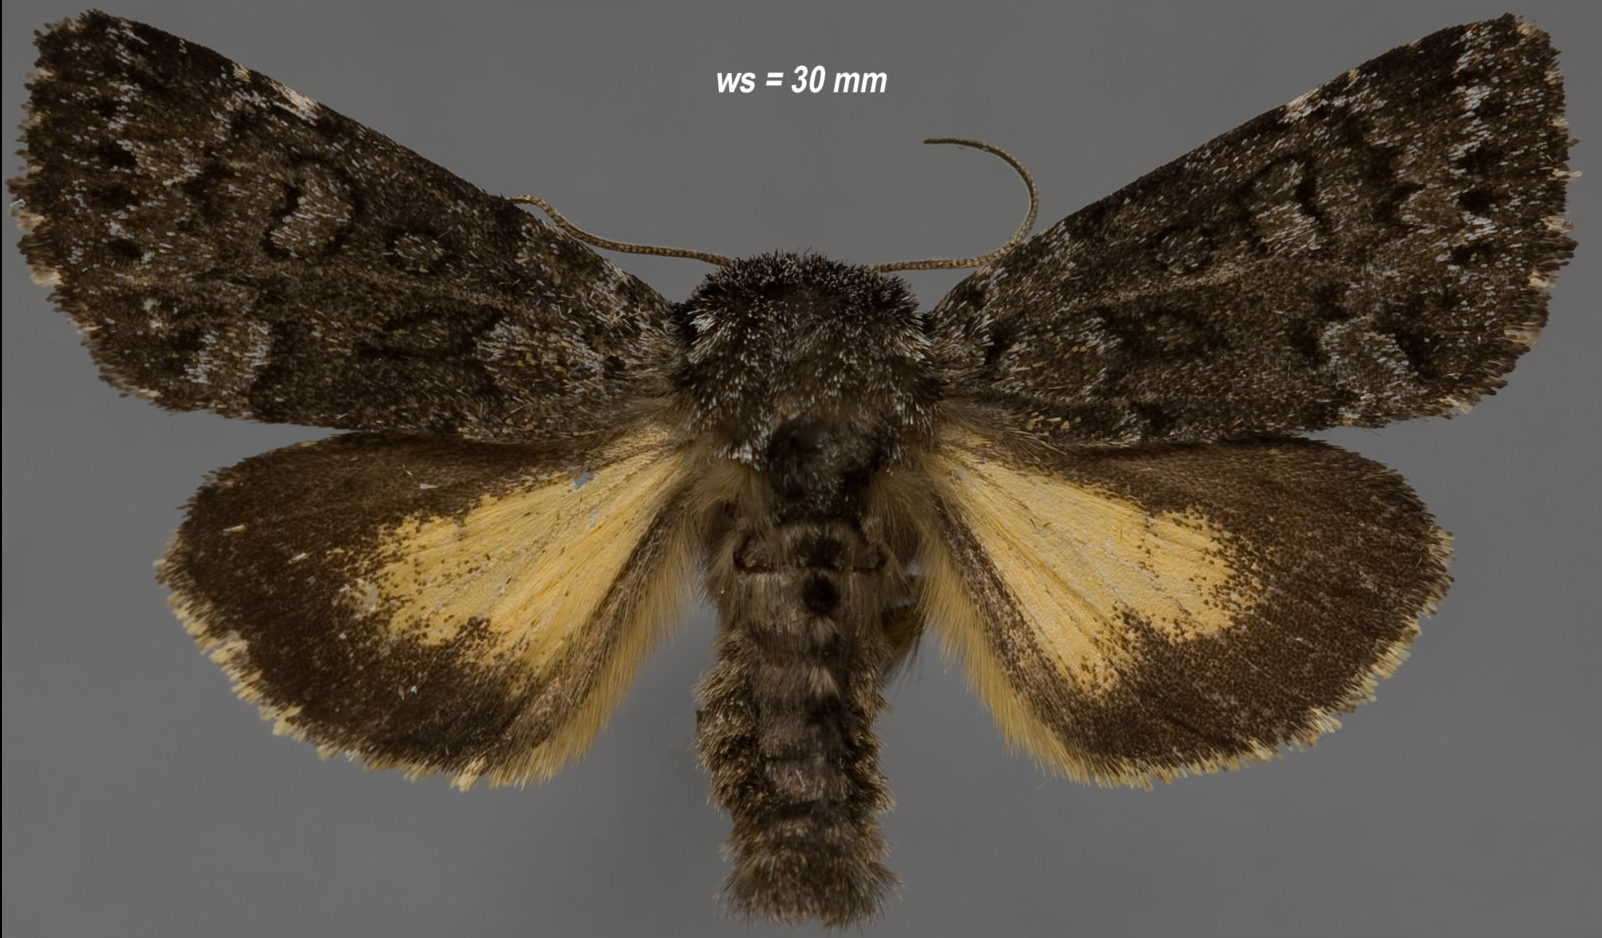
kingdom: Animalia
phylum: Arthropoda
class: Insecta
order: Lepidoptera
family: Noctuidae
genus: Lasionycta
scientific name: Lasionycta secedens
